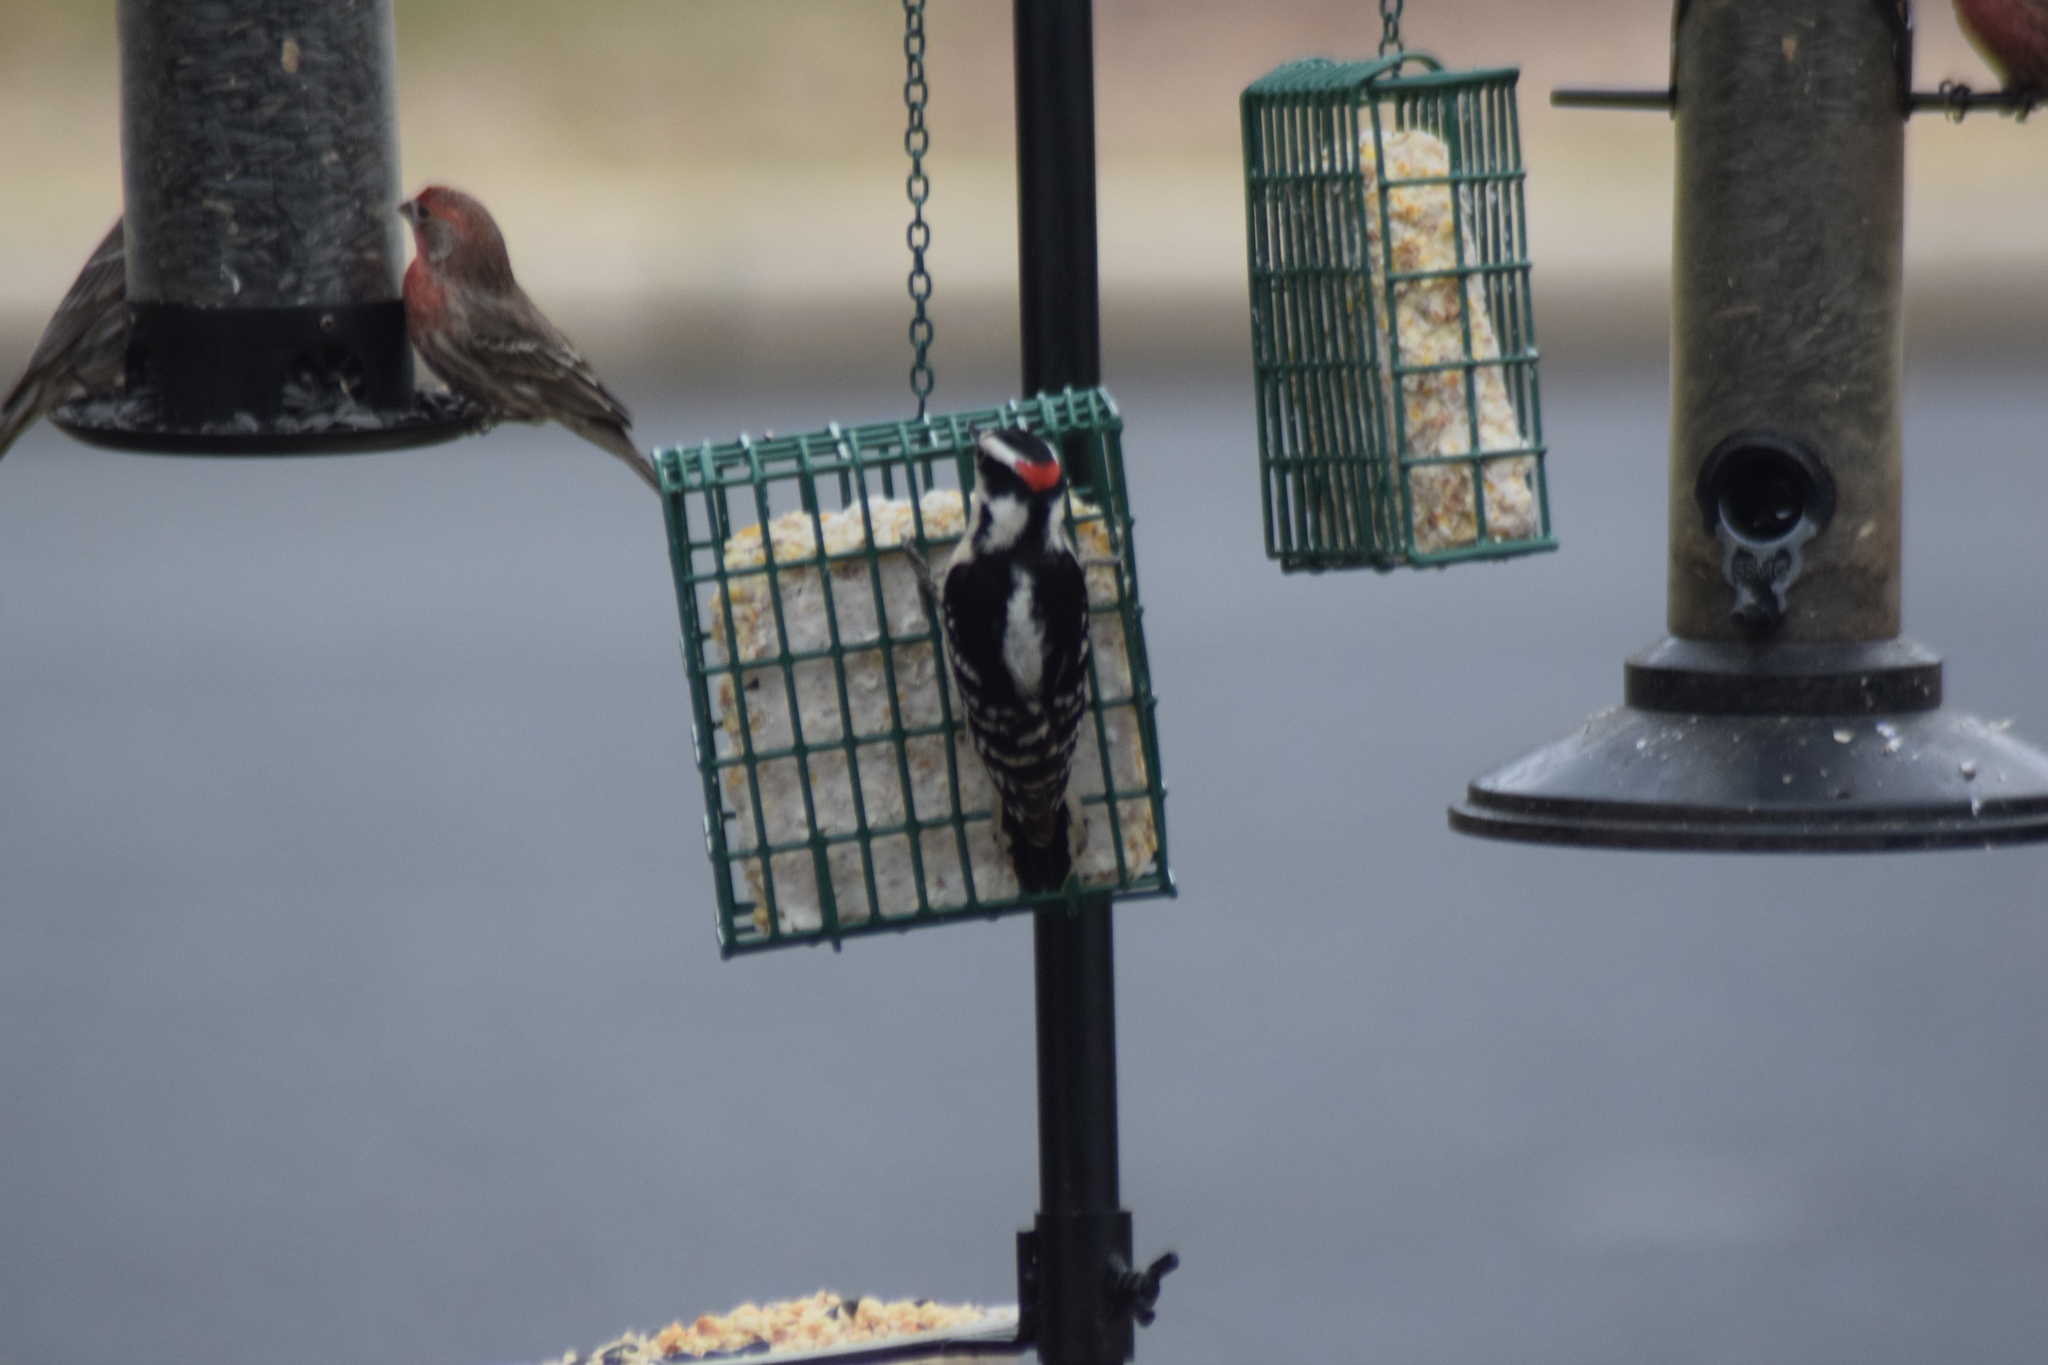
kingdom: Animalia
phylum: Chordata
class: Aves
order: Piciformes
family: Picidae
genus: Dryobates
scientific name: Dryobates pubescens
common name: Downy woodpecker
